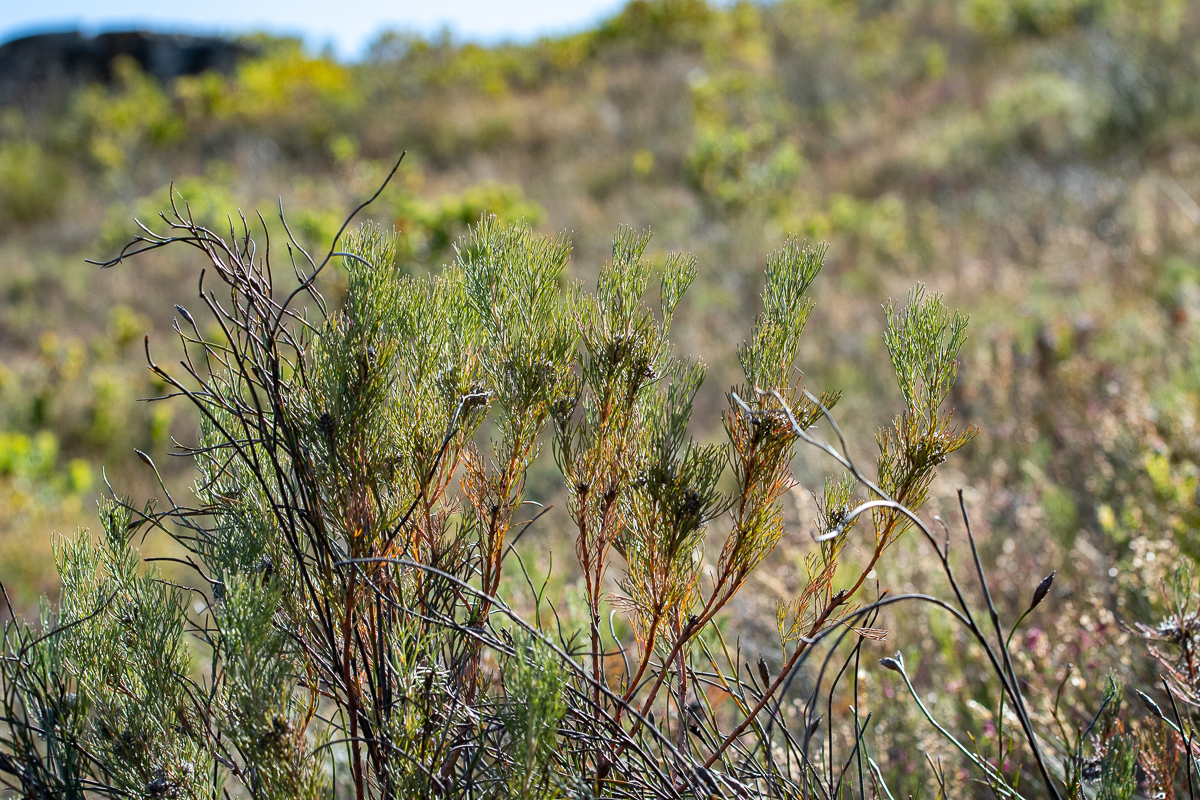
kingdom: Plantae
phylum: Tracheophyta
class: Magnoliopsida
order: Proteales
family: Proteaceae
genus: Serruria
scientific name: Serruria ascendens
